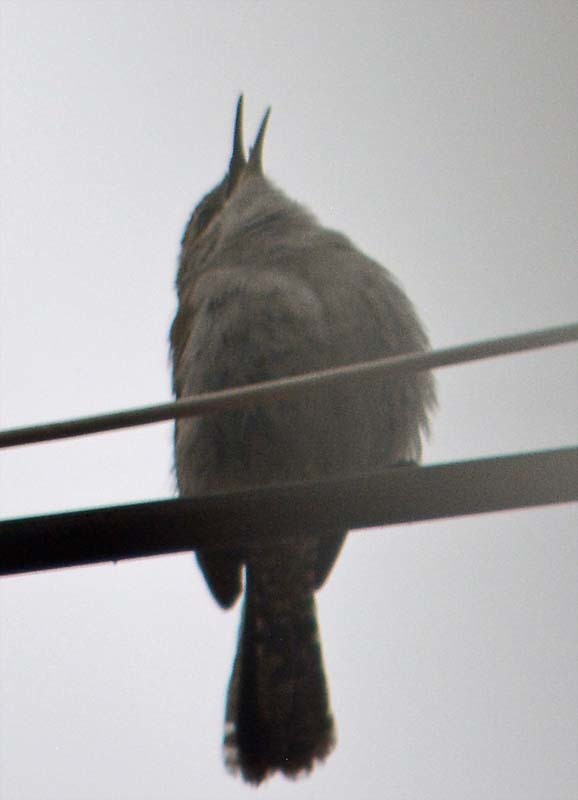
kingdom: Animalia
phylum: Chordata
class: Aves
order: Passeriformes
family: Troglodytidae
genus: Thryomanes
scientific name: Thryomanes bewickii
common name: Bewick's wren
